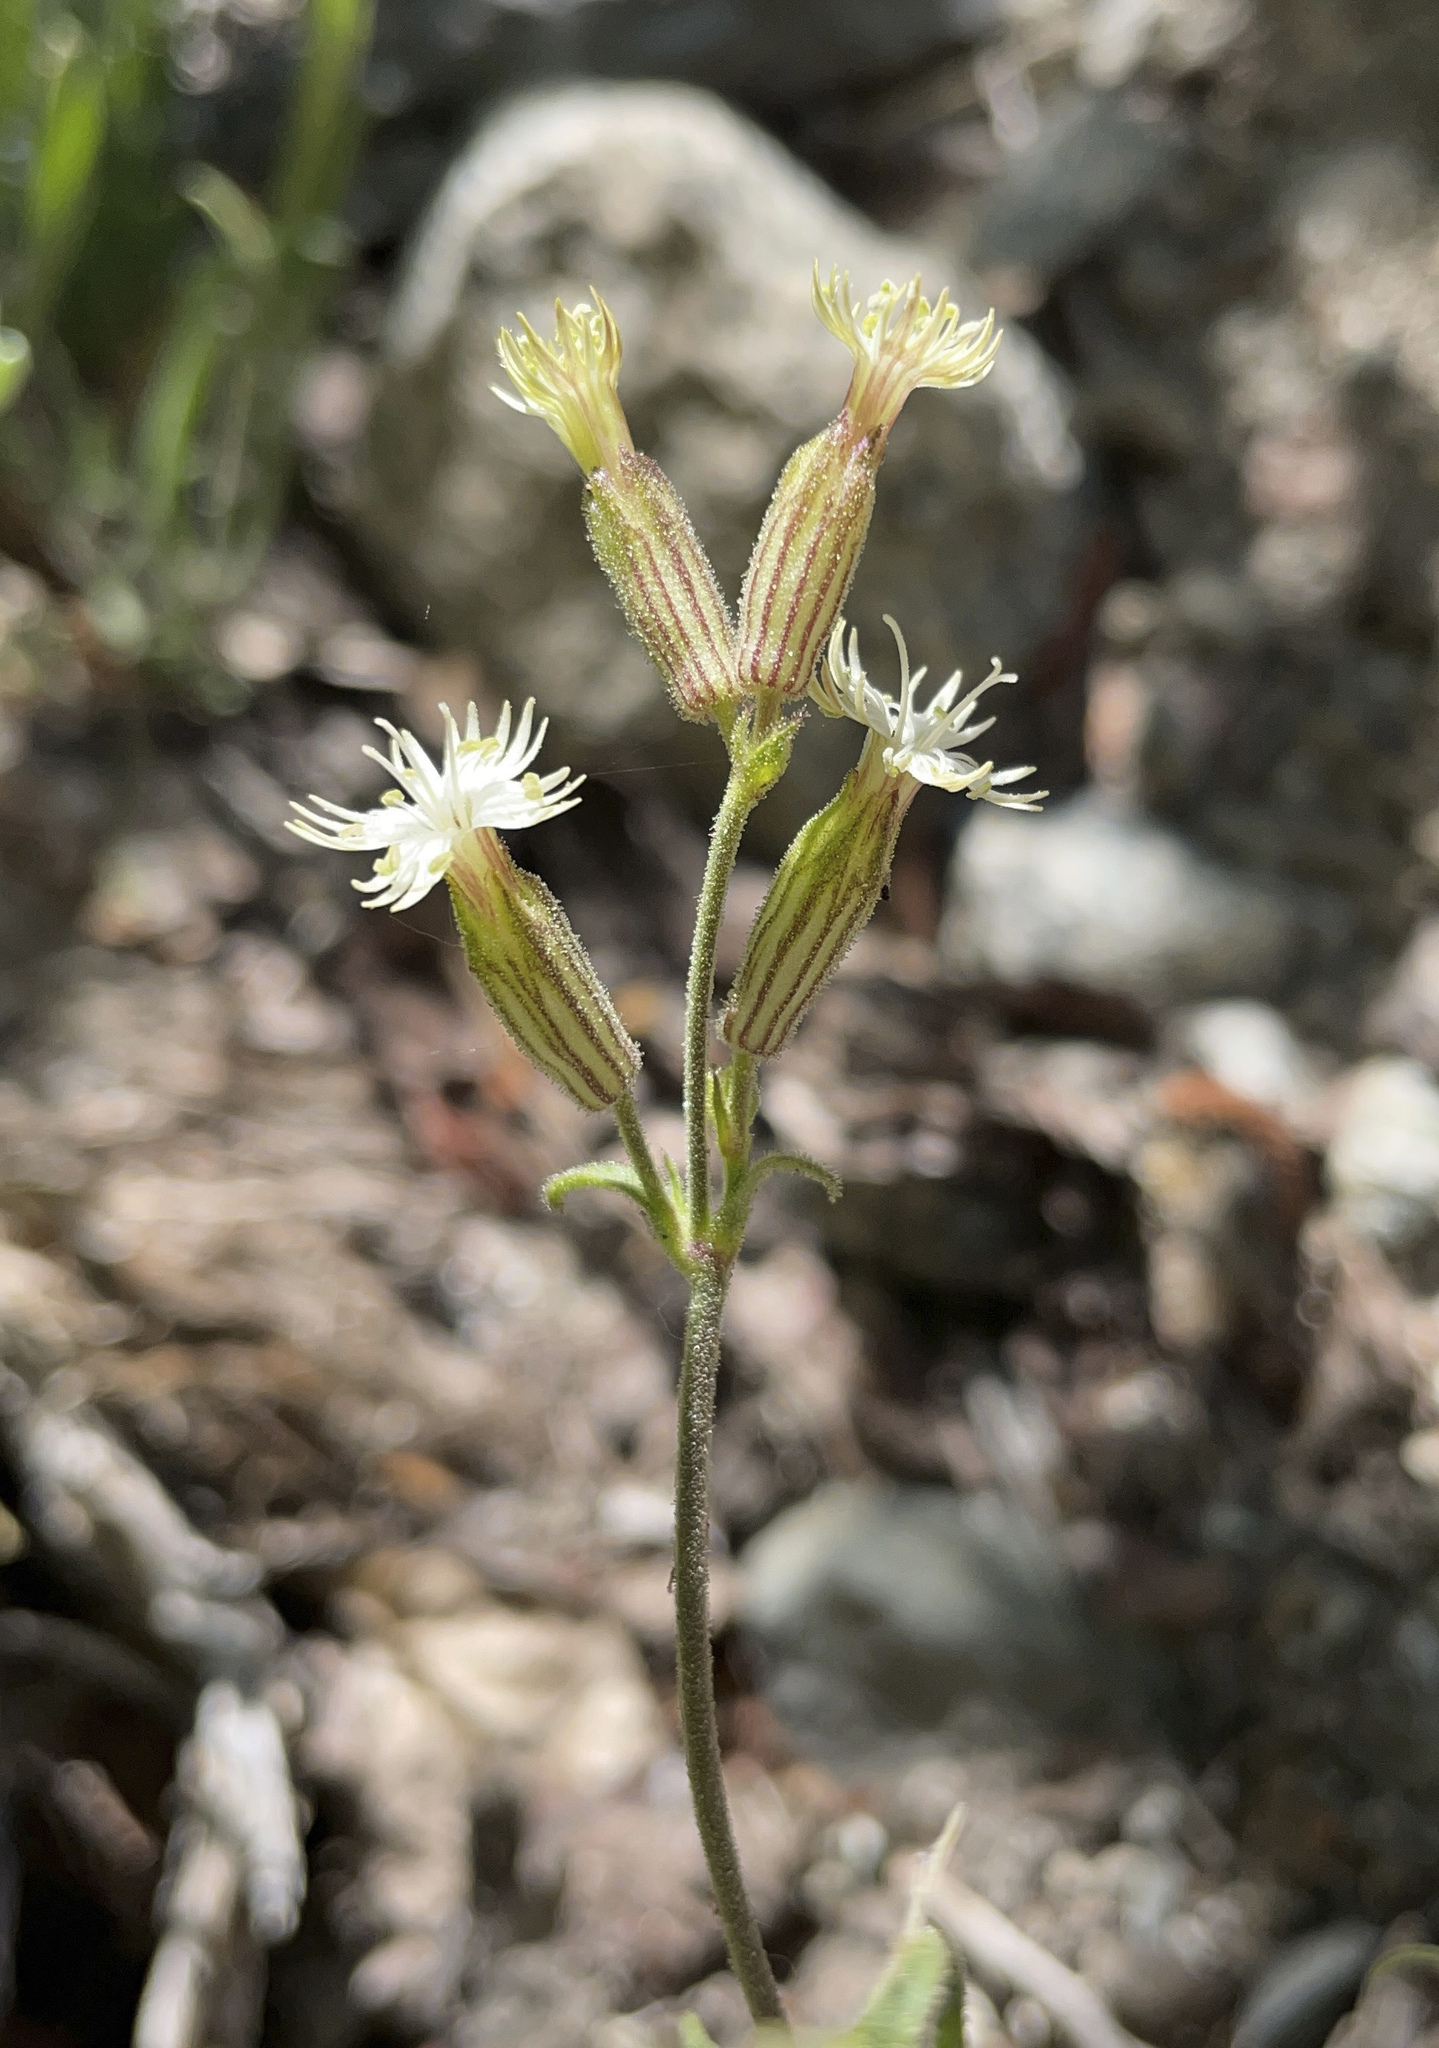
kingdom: Plantae
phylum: Tracheophyta
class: Magnoliopsida
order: Caryophyllales
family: Caryophyllaceae
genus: Silene
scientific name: Silene bernardina
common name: Palmer's catchfly
